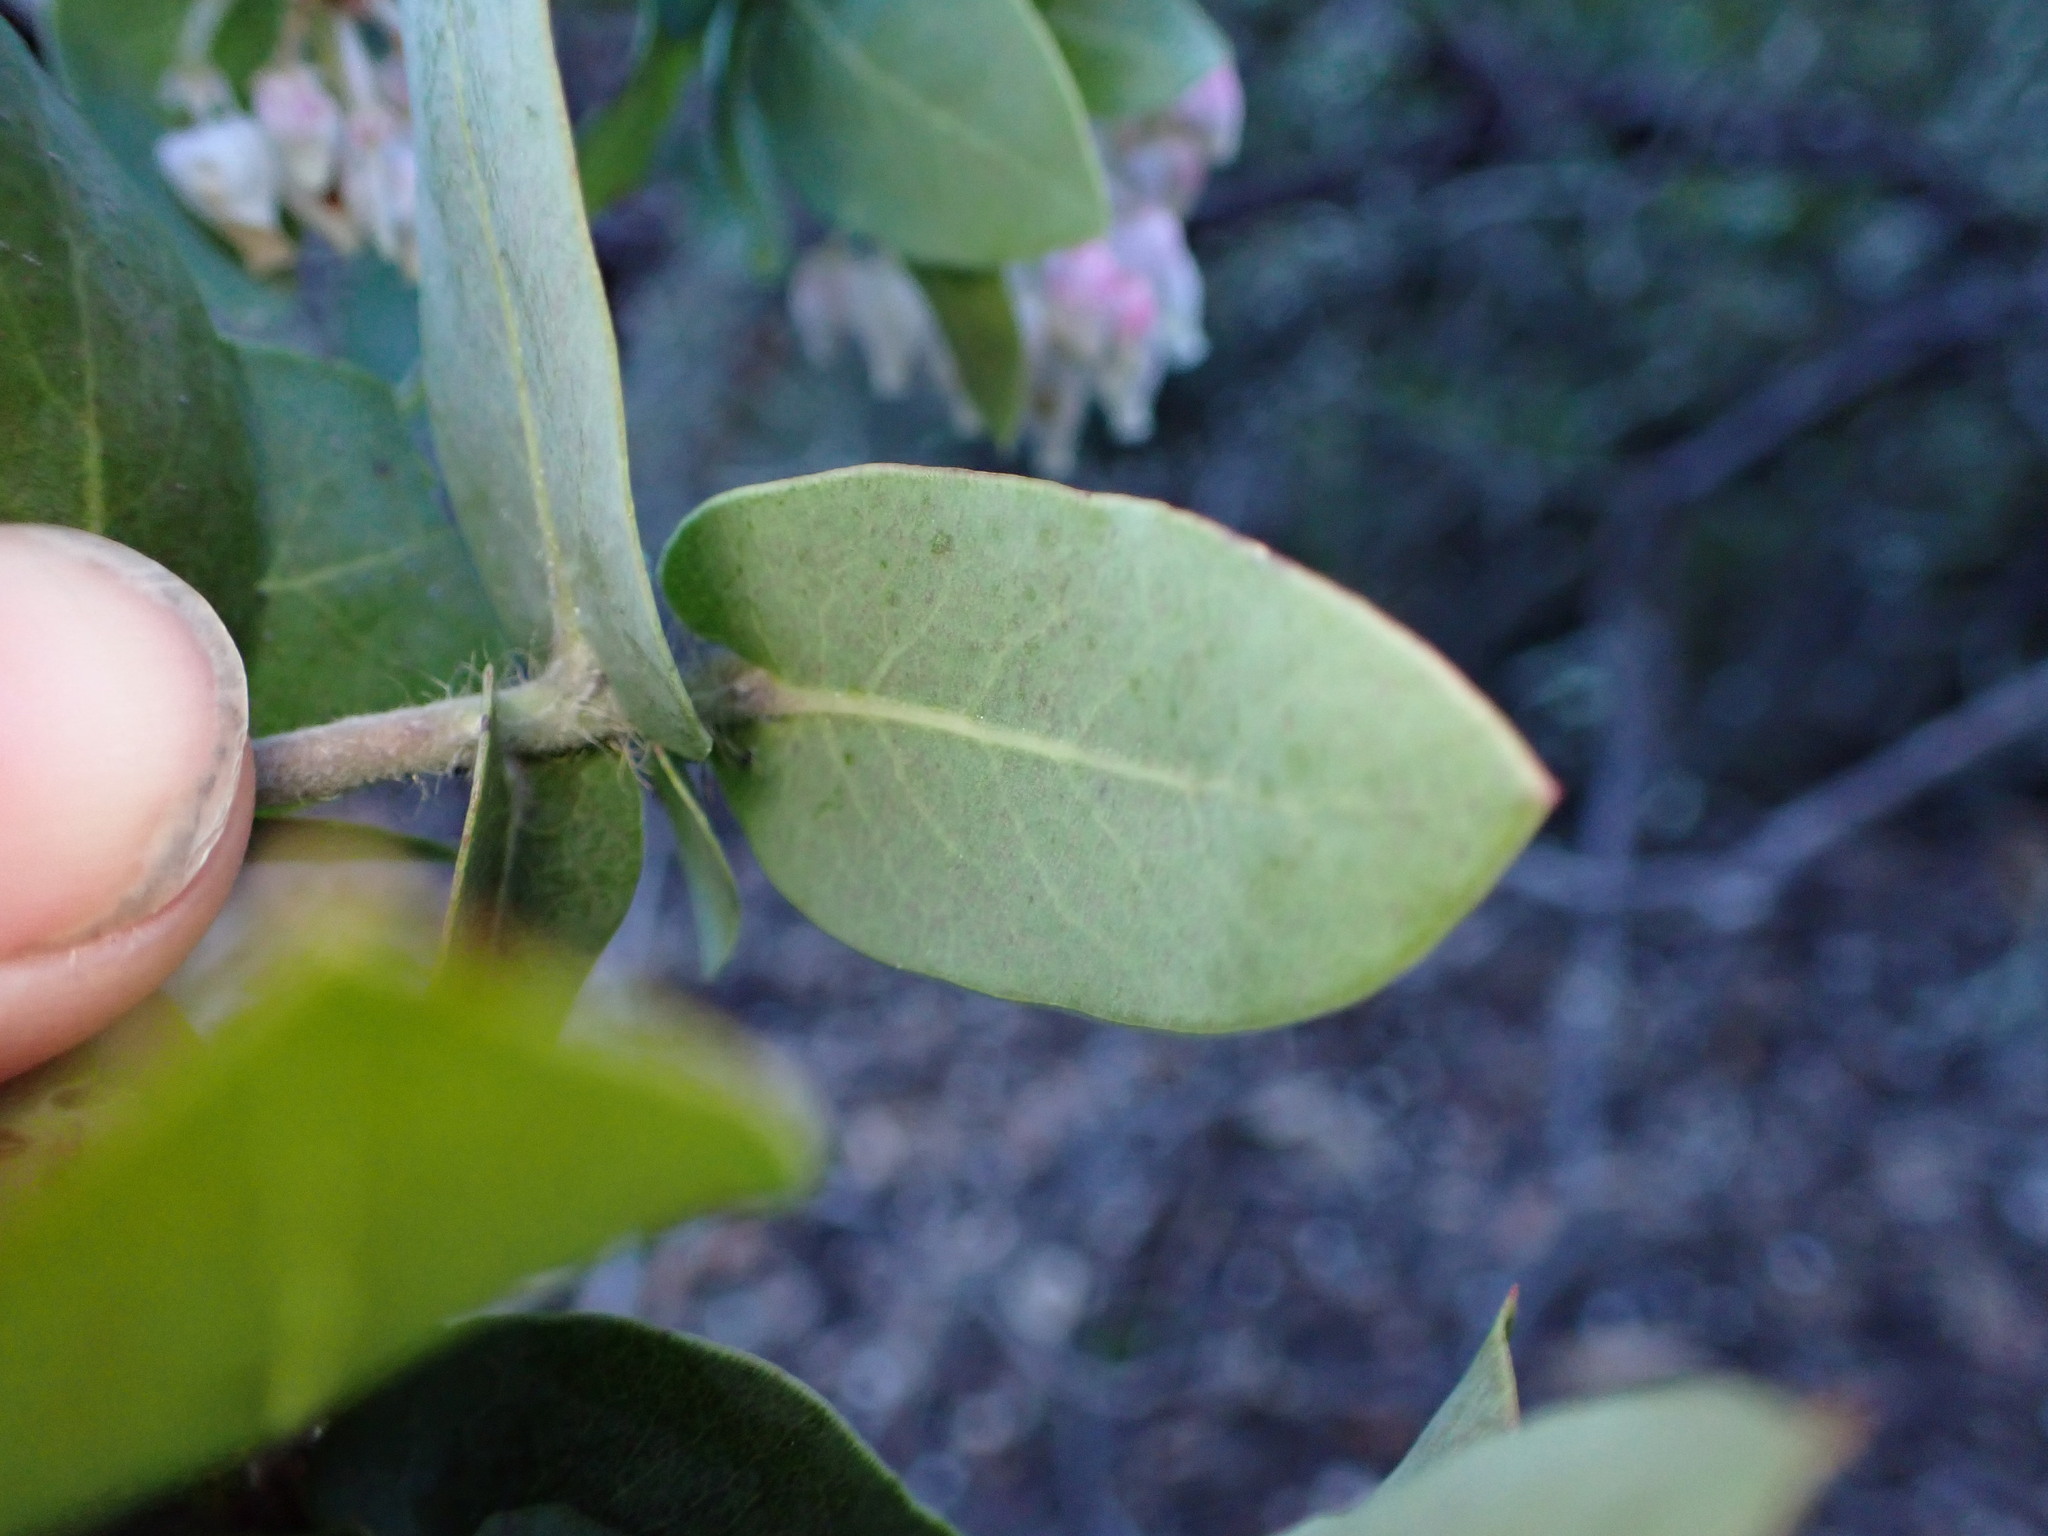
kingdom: Plantae
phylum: Tracheophyta
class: Magnoliopsida
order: Ericales
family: Ericaceae
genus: Arctostaphylos
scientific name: Arctostaphylos pallida
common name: Pallid manzanita
